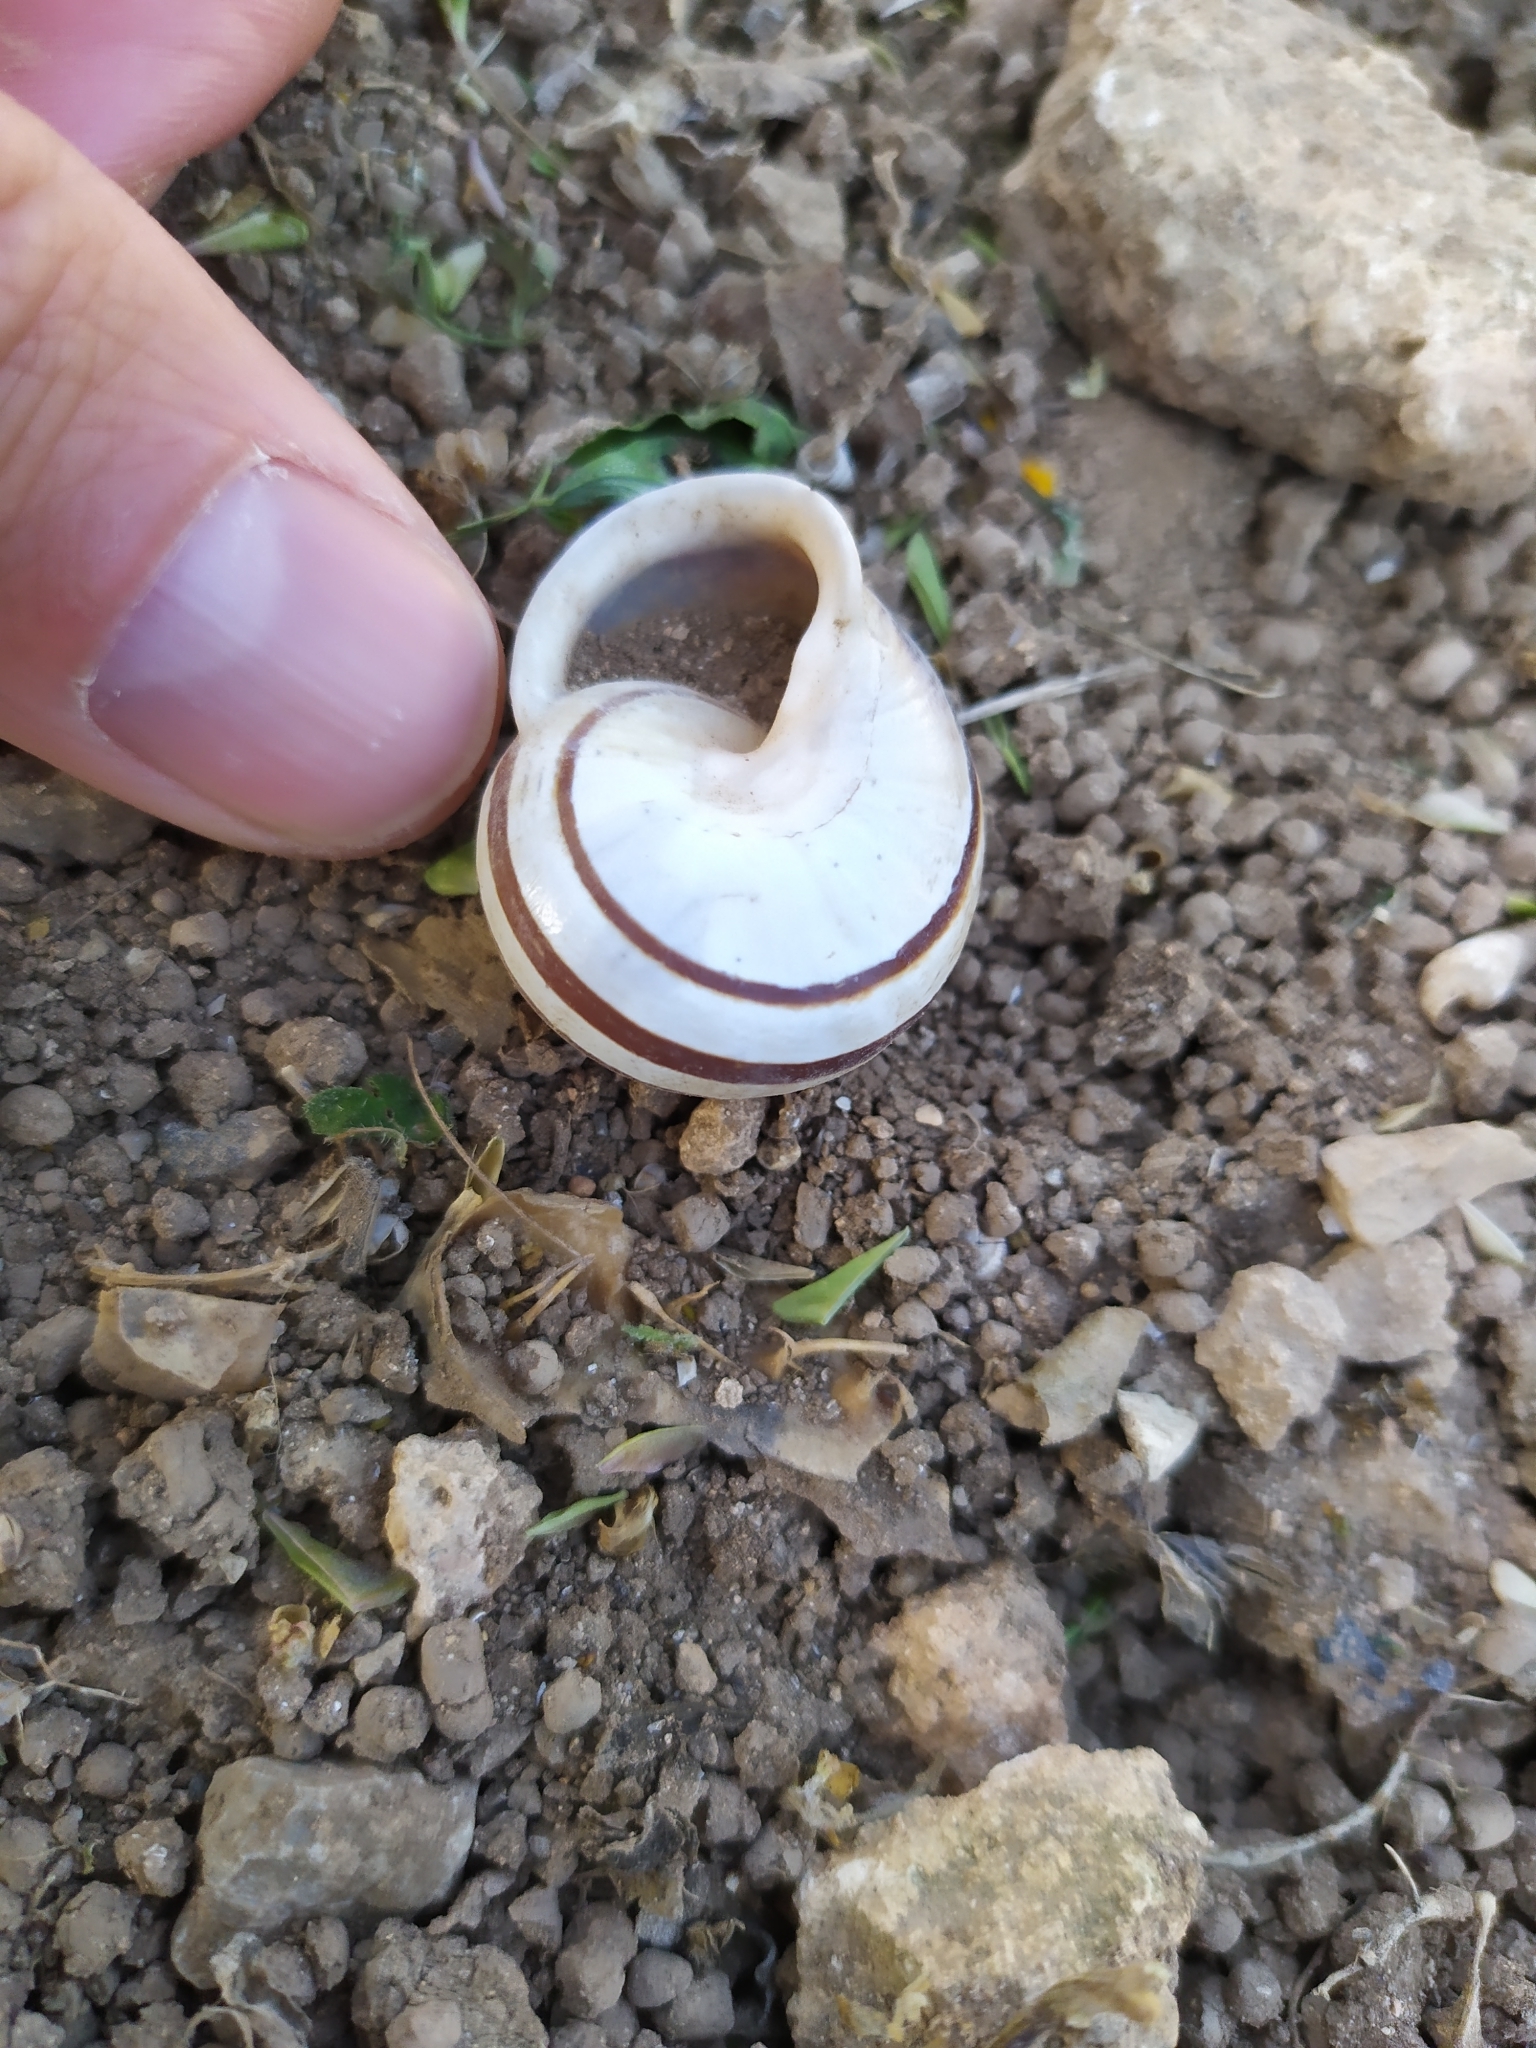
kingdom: Animalia
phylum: Mollusca
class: Gastropoda
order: Stylommatophora
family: Helicidae
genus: Eobania
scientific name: Eobania vermiculata
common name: Chocolateband snail
